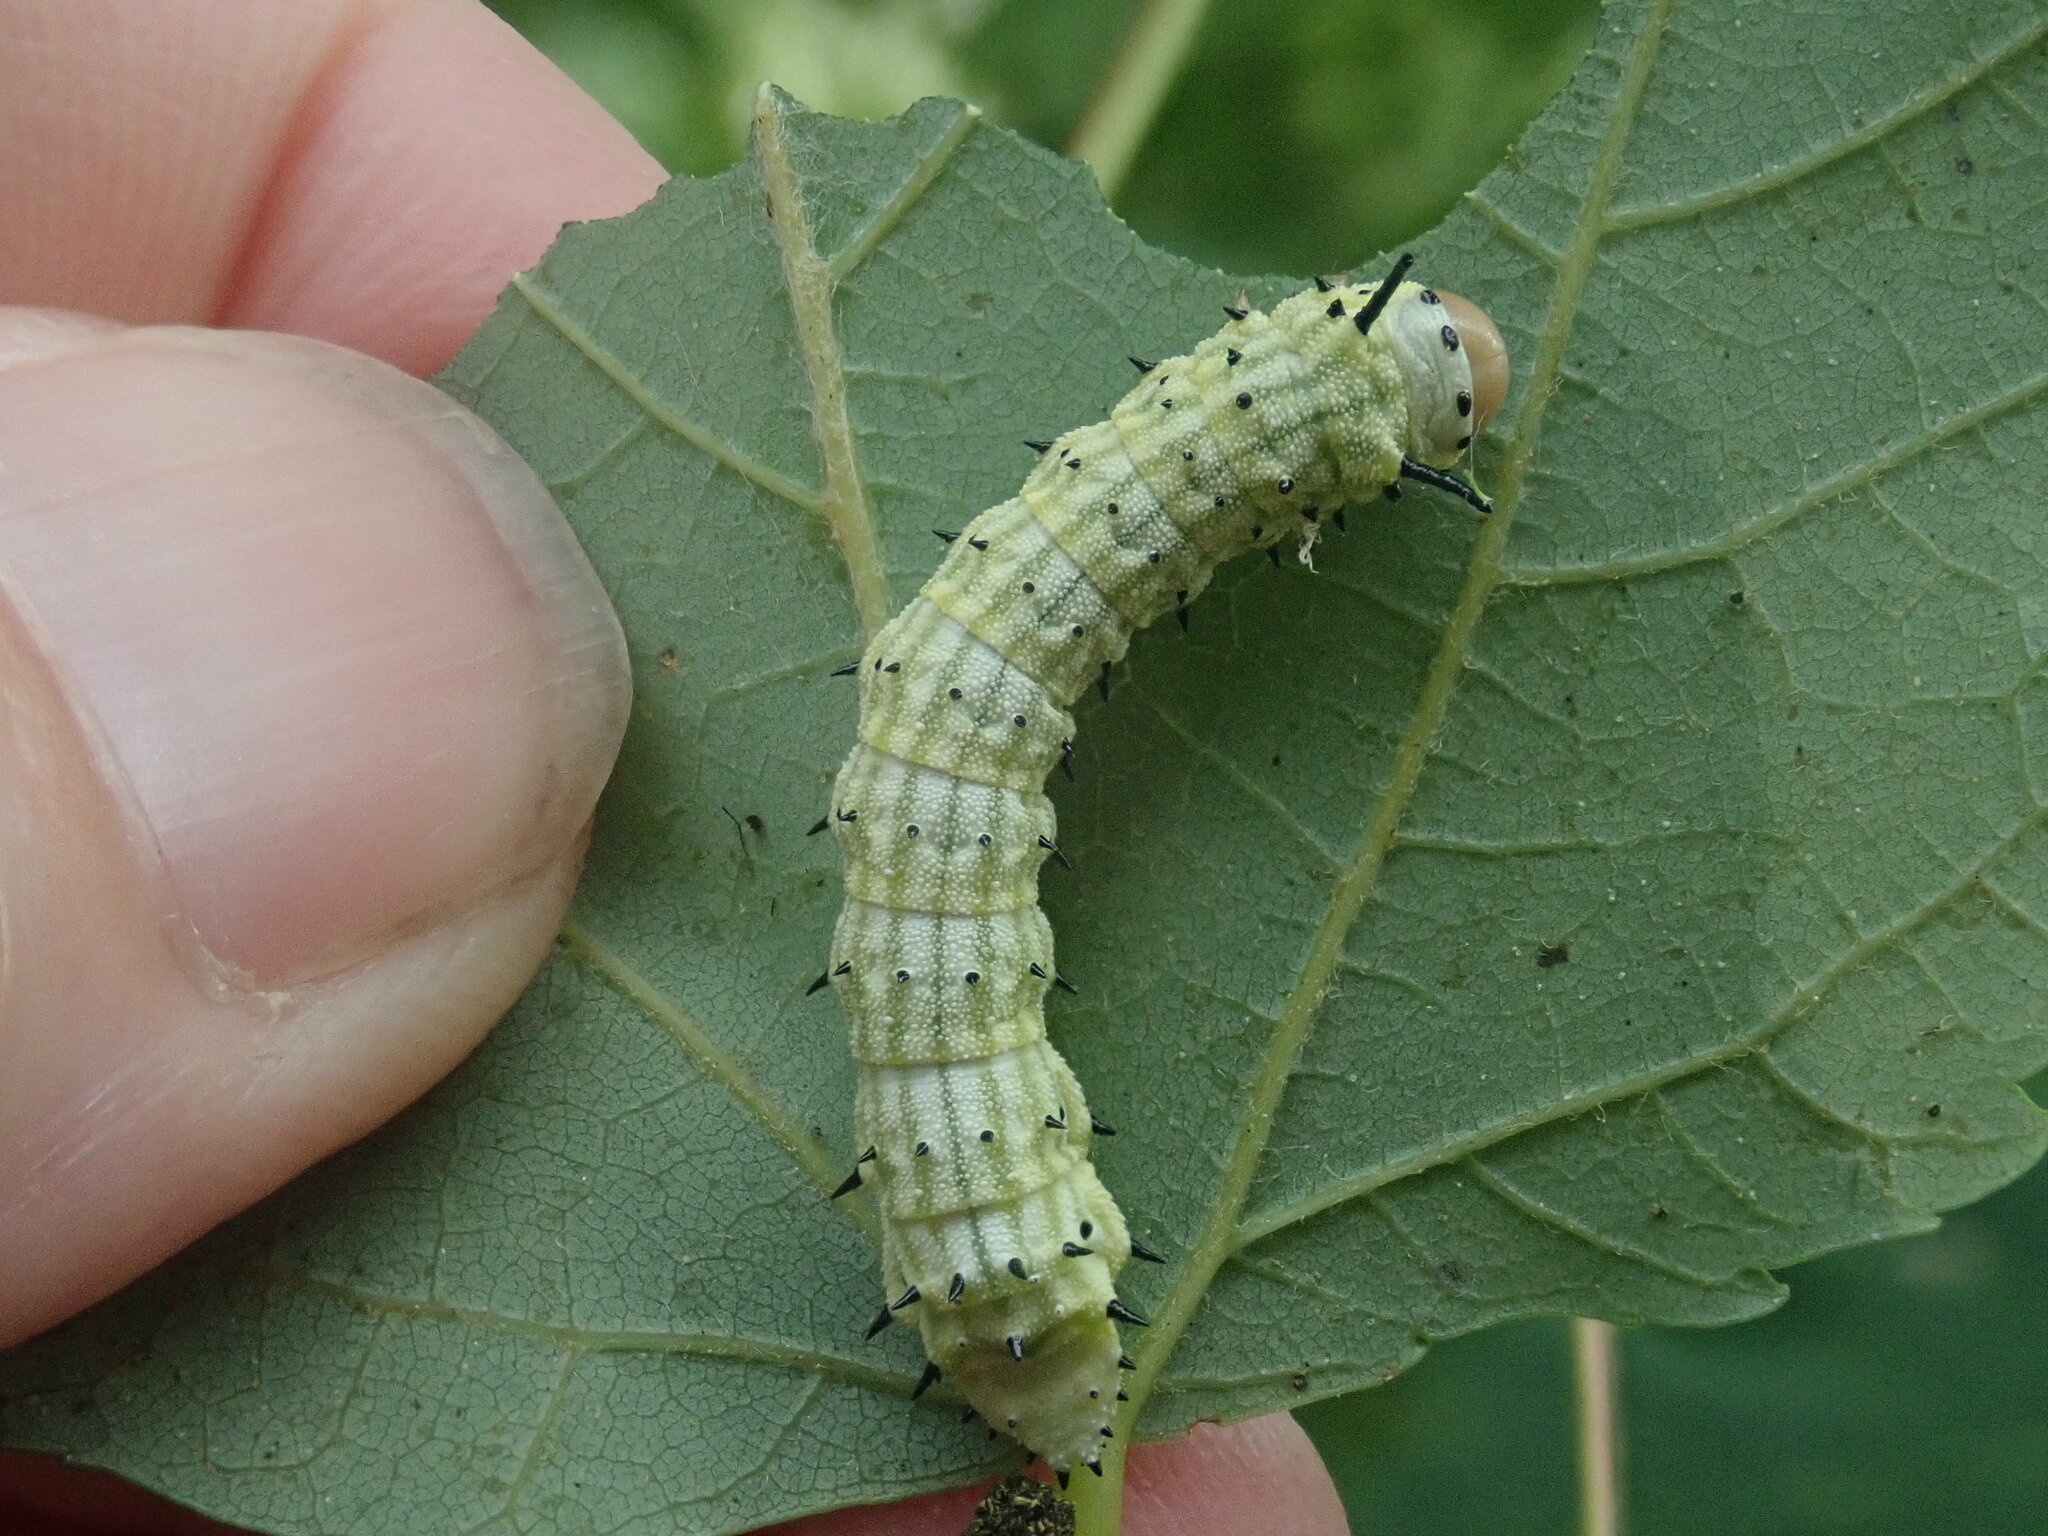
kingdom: Animalia
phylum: Arthropoda
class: Insecta
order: Lepidoptera
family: Saturniidae
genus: Dryocampa
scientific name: Dryocampa rubicunda
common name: Rosy maple moth
